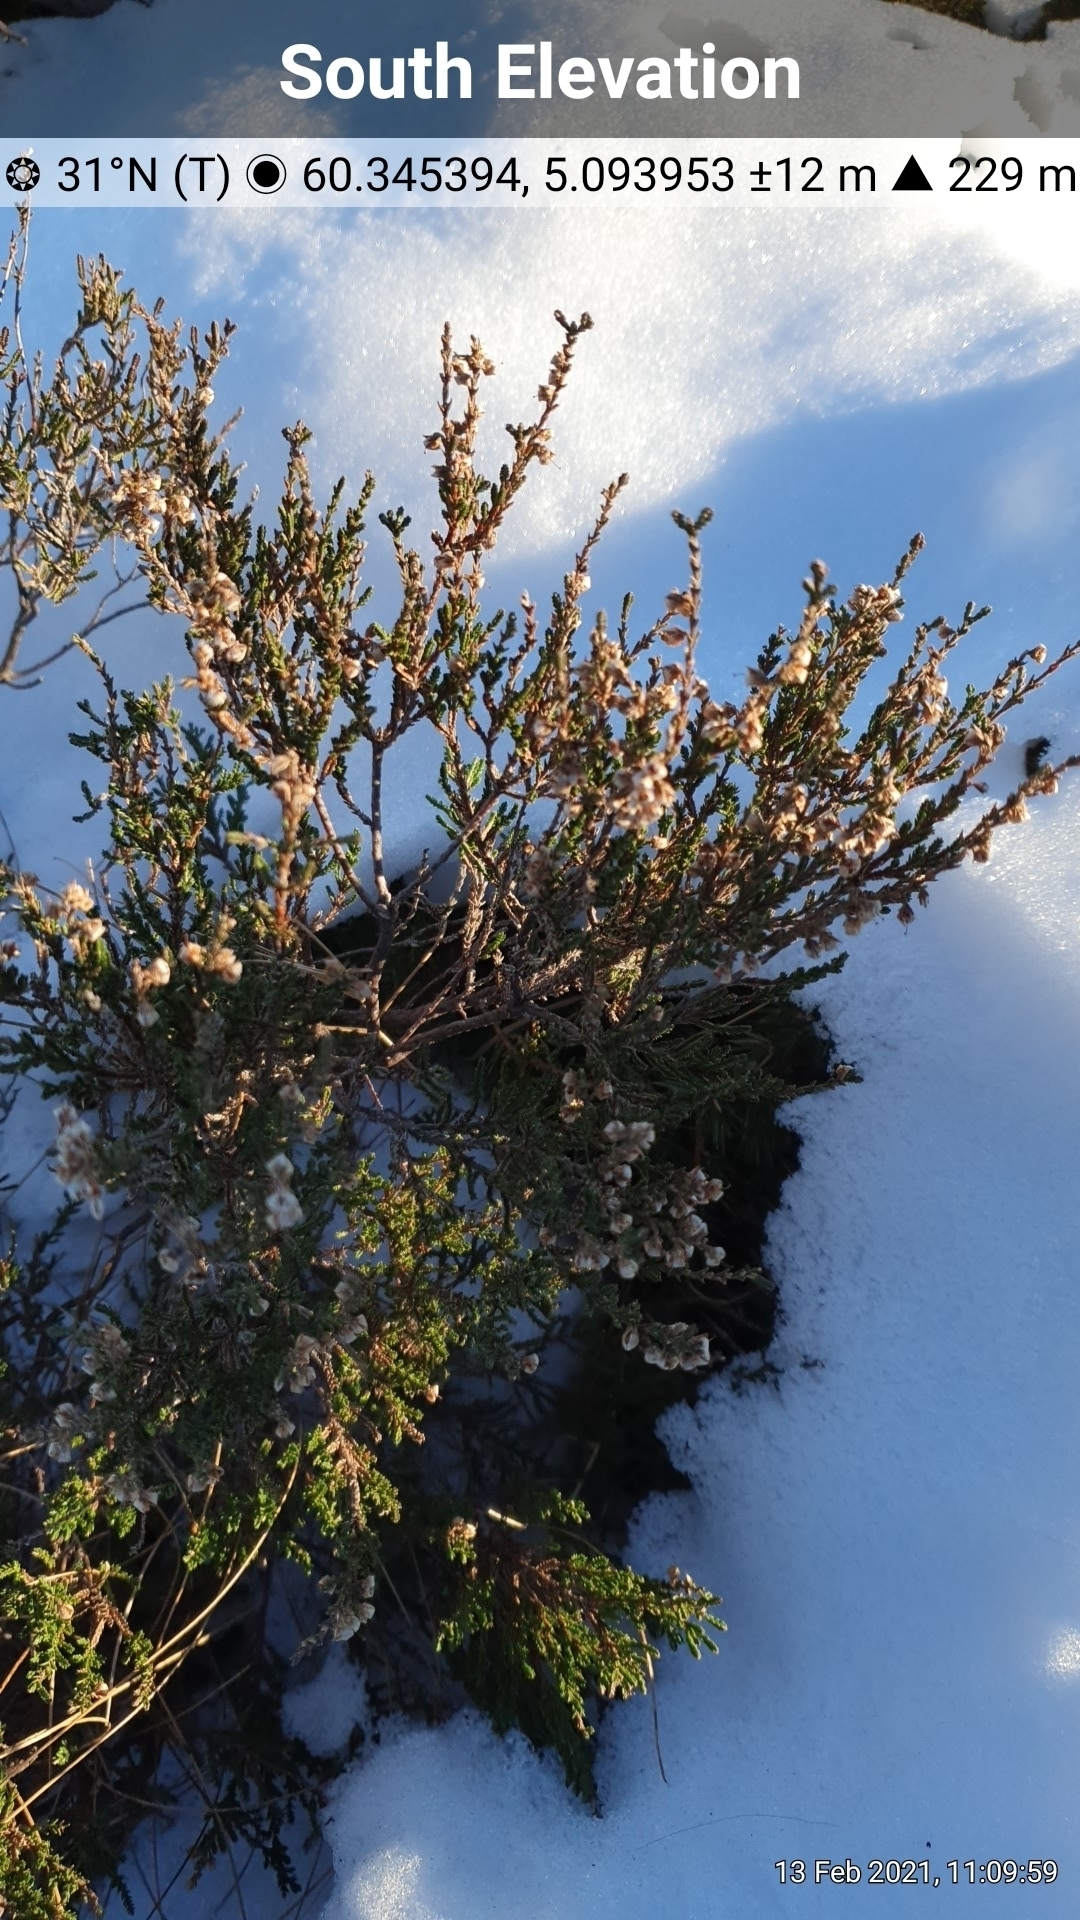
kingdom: Plantae
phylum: Tracheophyta
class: Magnoliopsida
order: Ericales
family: Ericaceae
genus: Calluna
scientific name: Calluna vulgaris
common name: Heather
